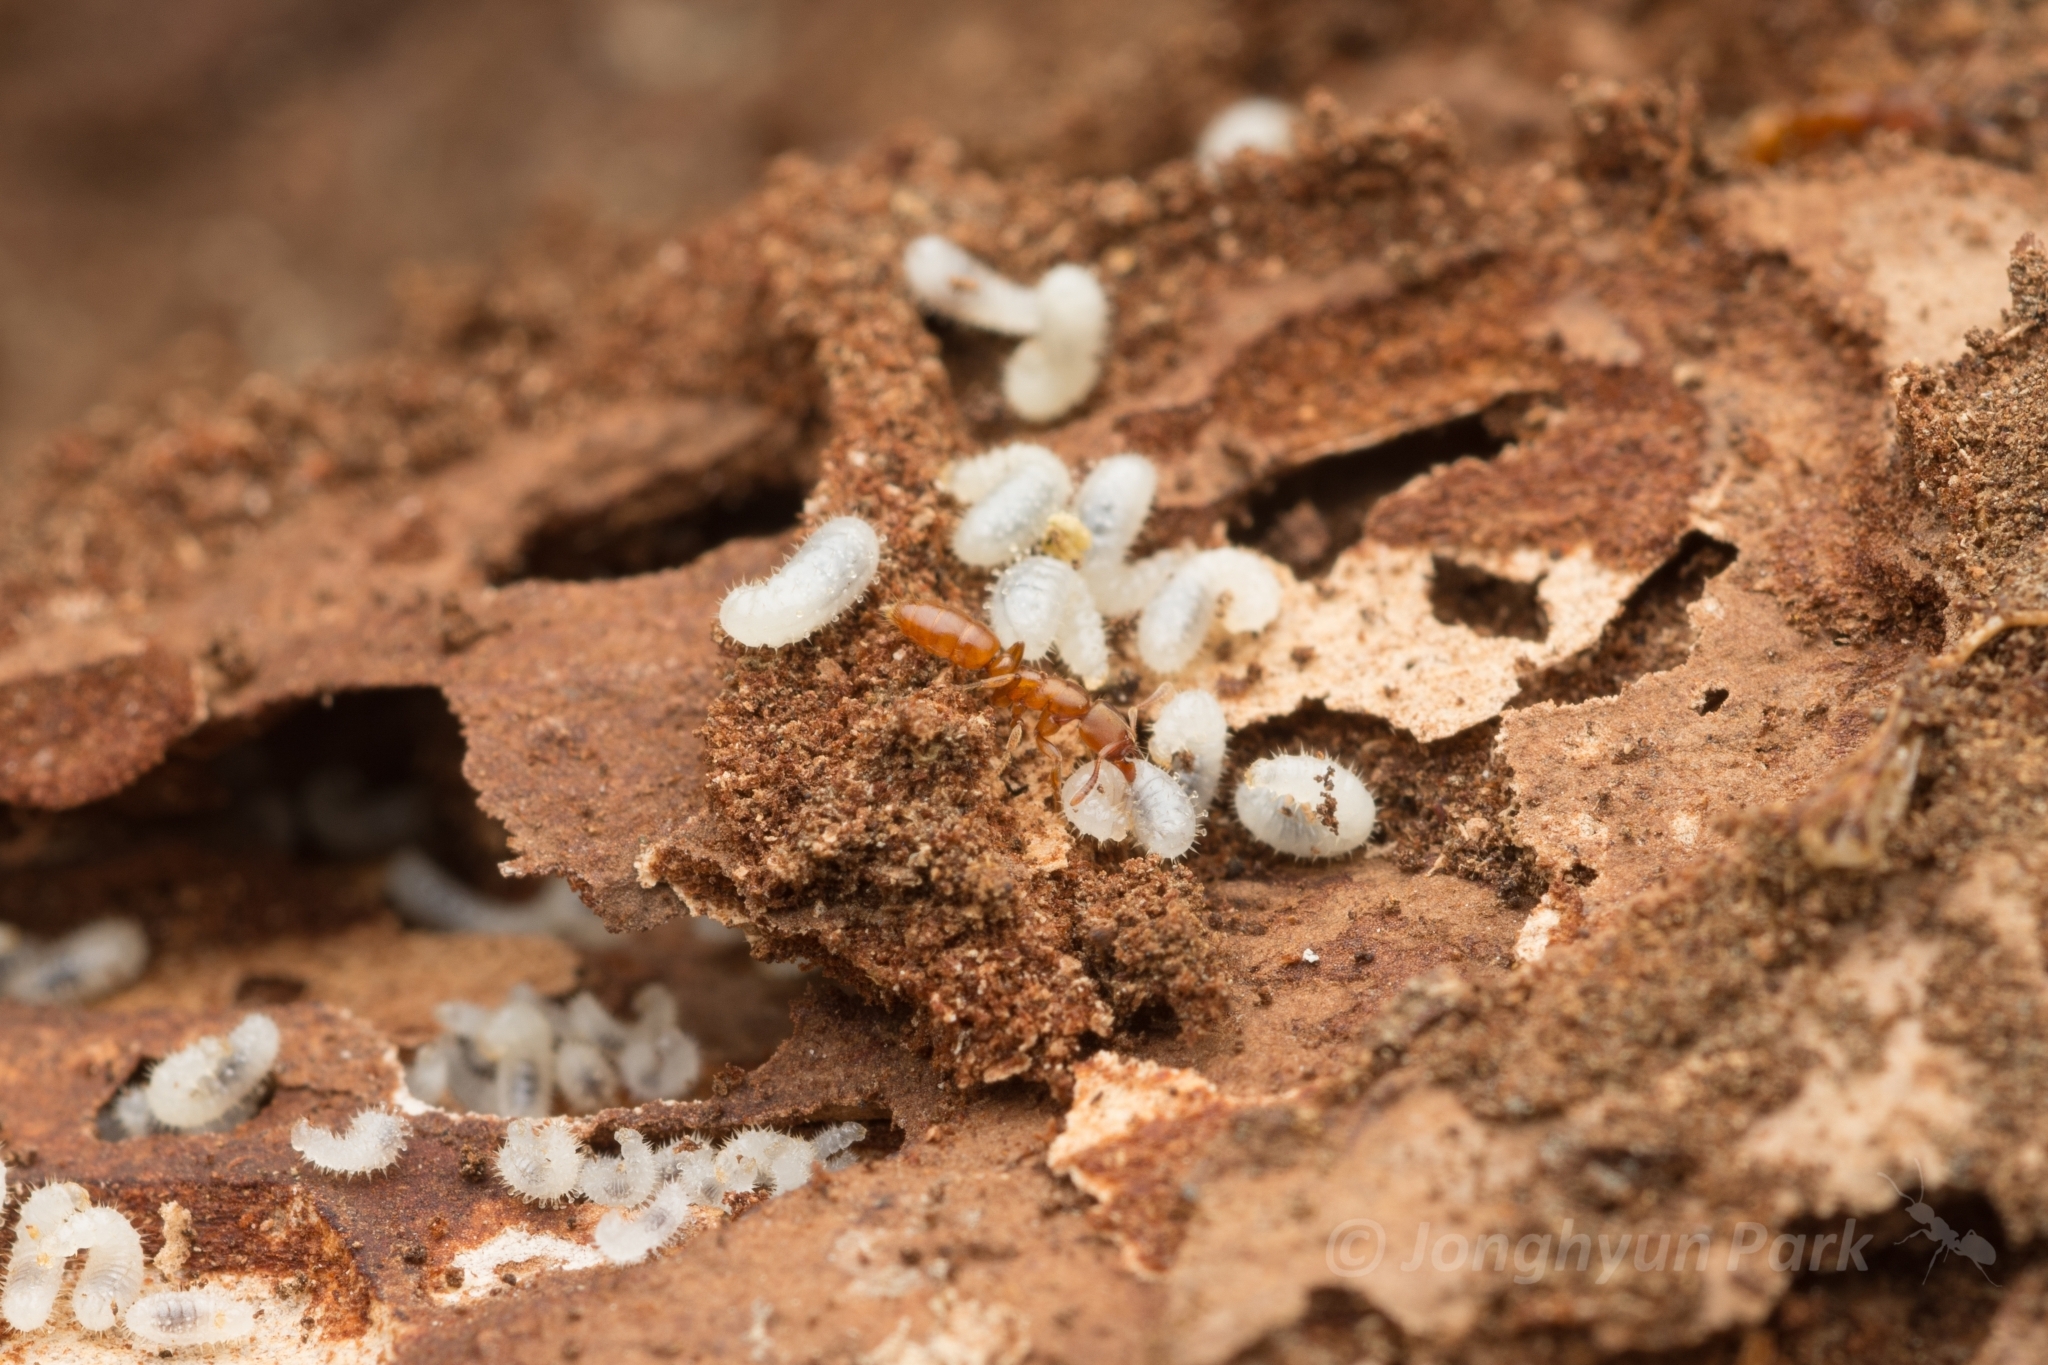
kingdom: Animalia
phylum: Arthropoda
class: Insecta
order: Hymenoptera
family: Formicidae
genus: Cryptopone
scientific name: Cryptopone sauteri
